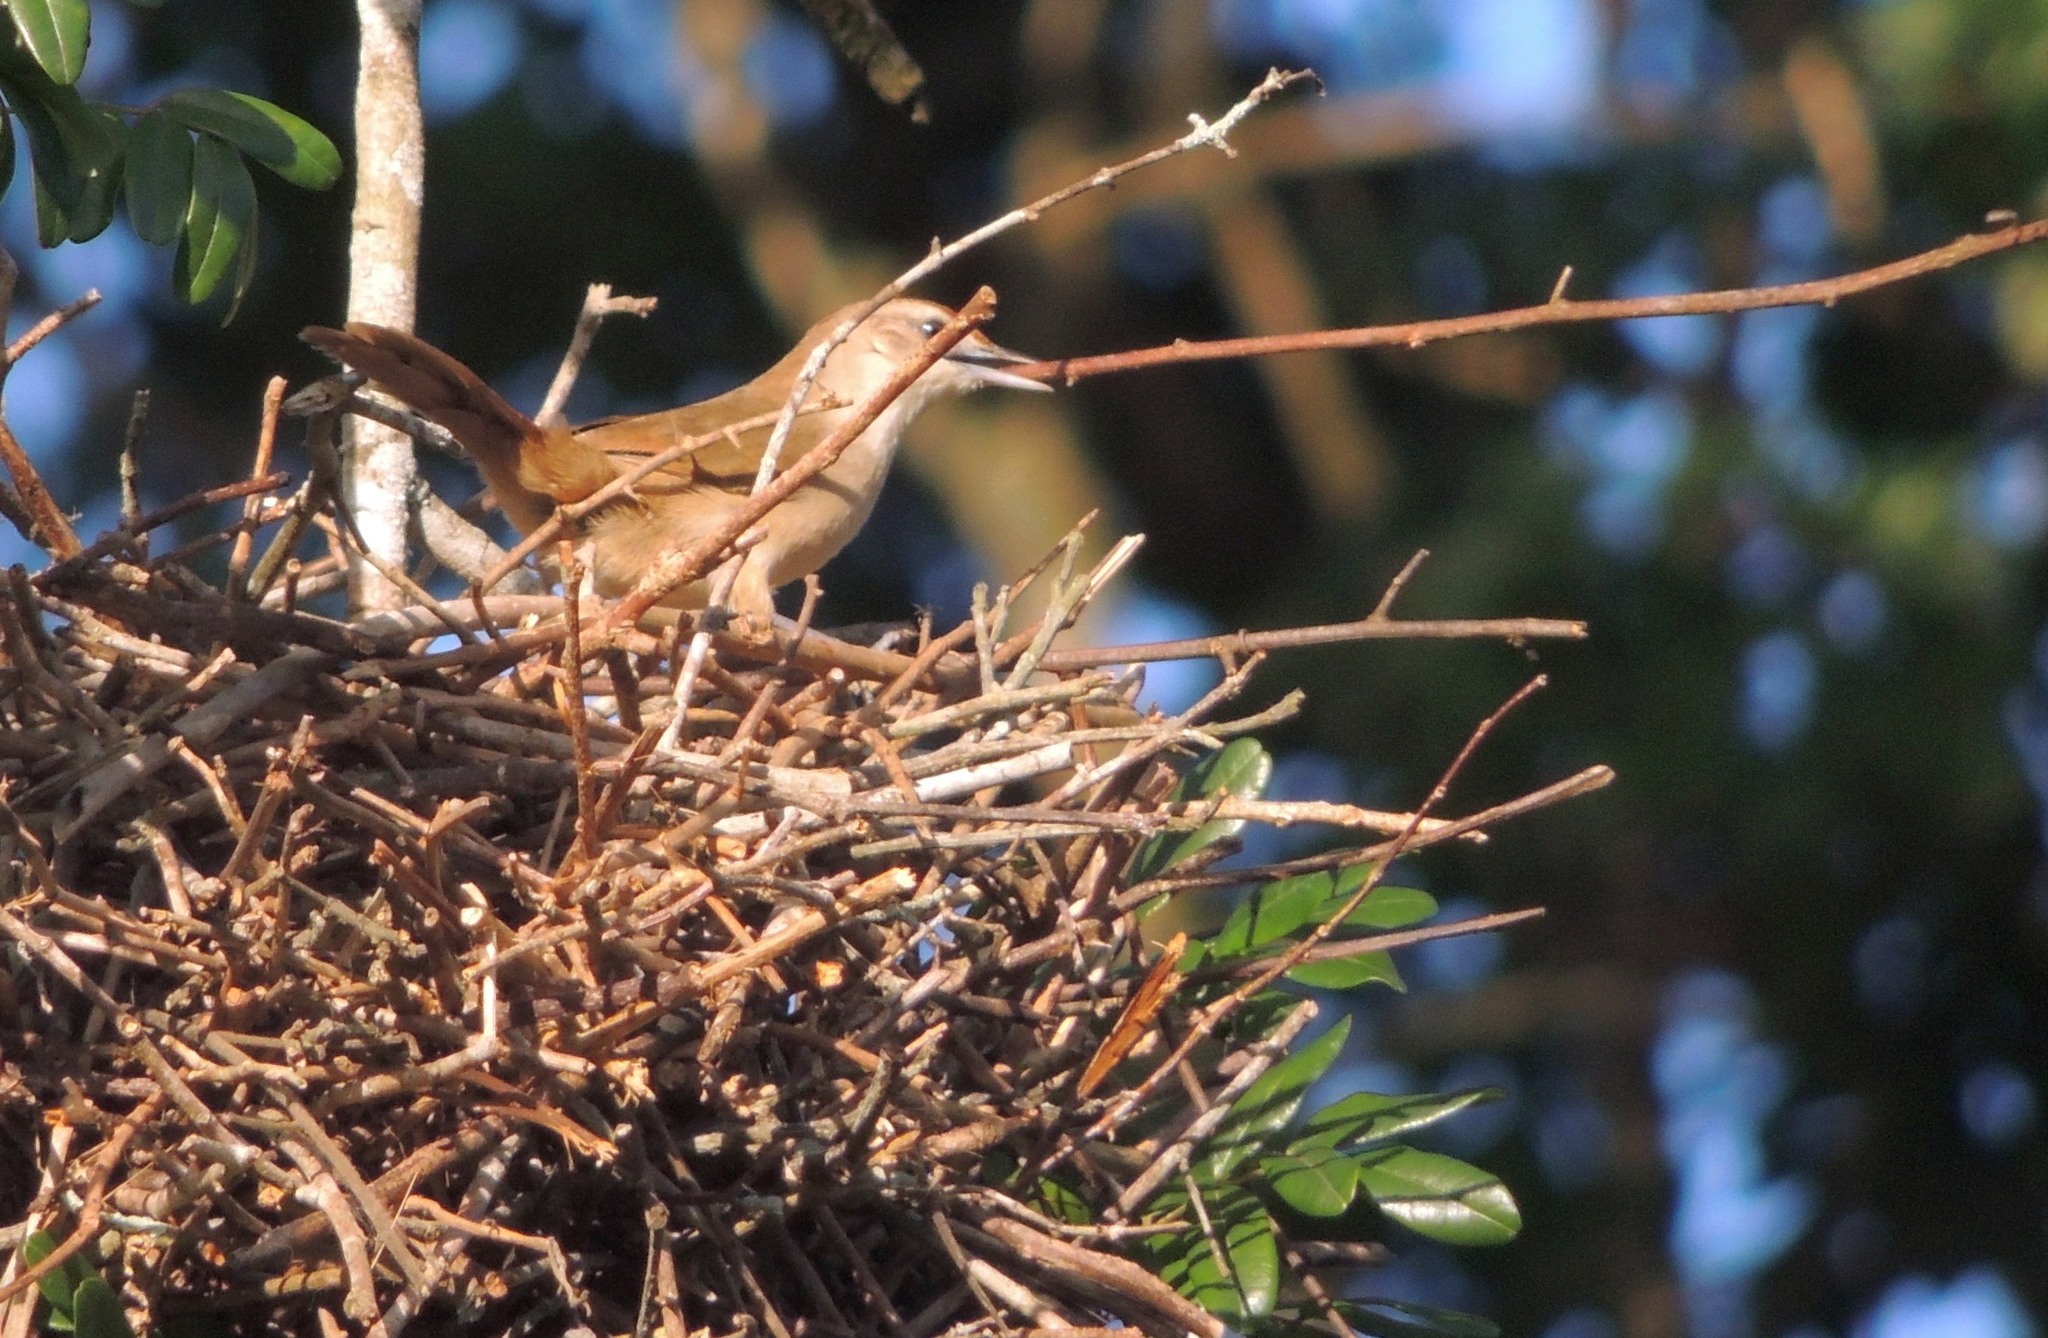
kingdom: Animalia
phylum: Chordata
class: Aves
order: Passeriformes
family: Furnariidae
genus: Phacellodomus
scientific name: Phacellodomus rufifrons
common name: Rufous-fronted thornbird
